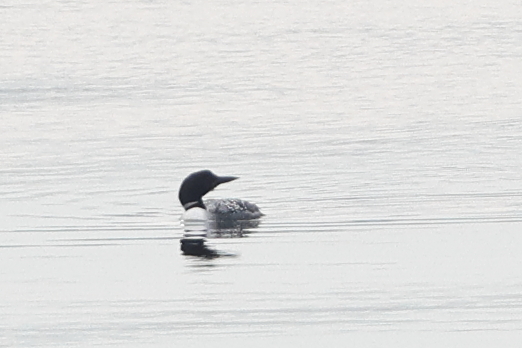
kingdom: Animalia
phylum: Chordata
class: Aves
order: Gaviiformes
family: Gaviidae
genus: Gavia
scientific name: Gavia immer
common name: Common loon
